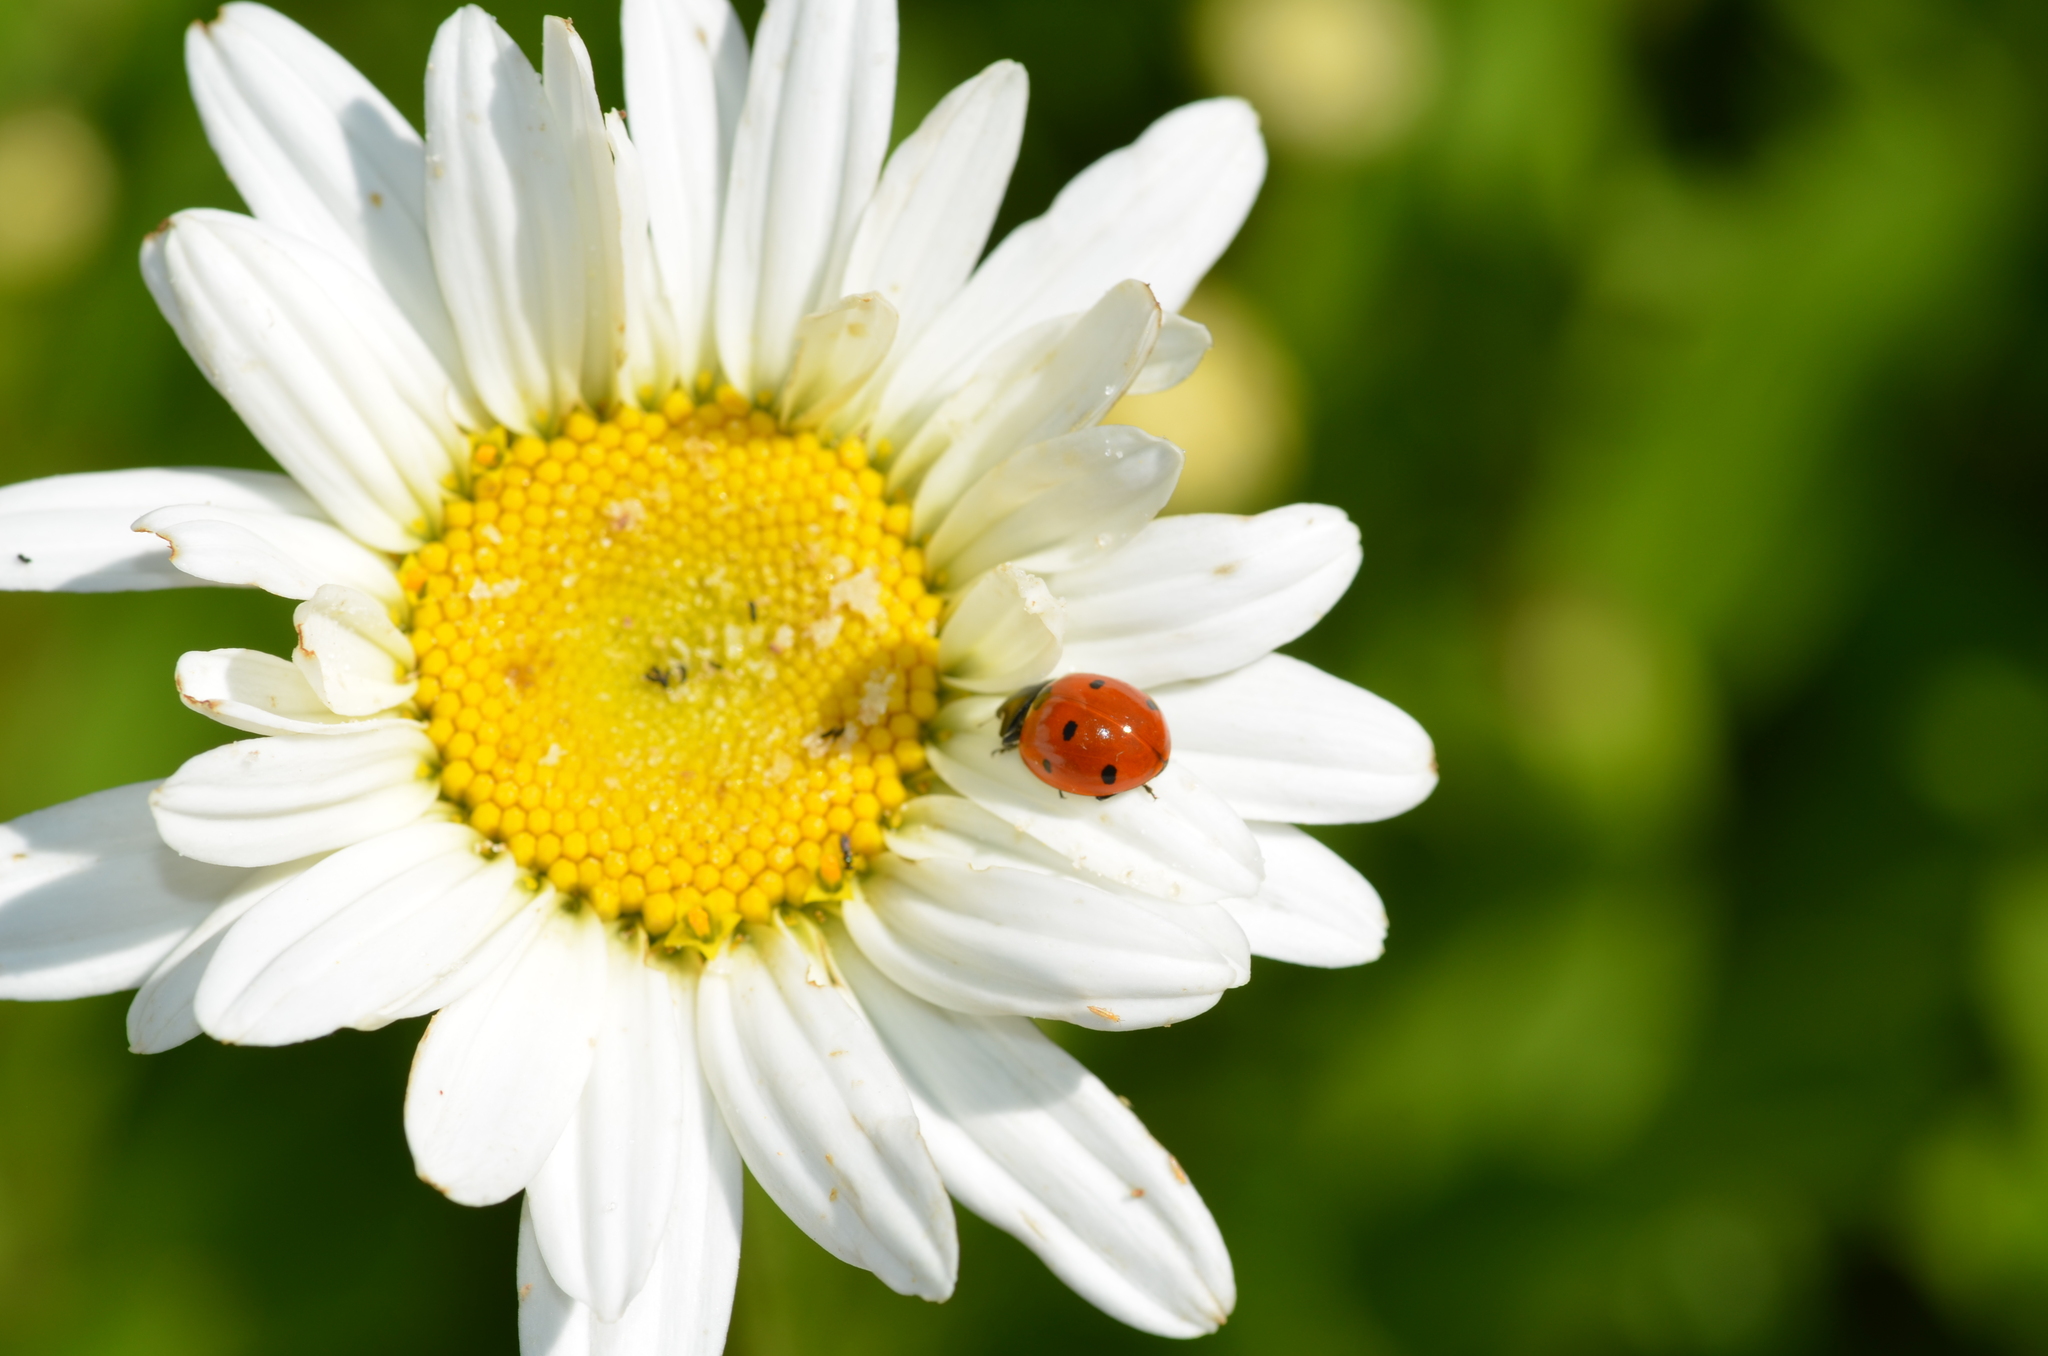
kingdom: Animalia
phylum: Arthropoda
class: Insecta
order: Coleoptera
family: Coccinellidae
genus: Coccinella
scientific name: Coccinella septempunctata
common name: Sevenspotted lady beetle
